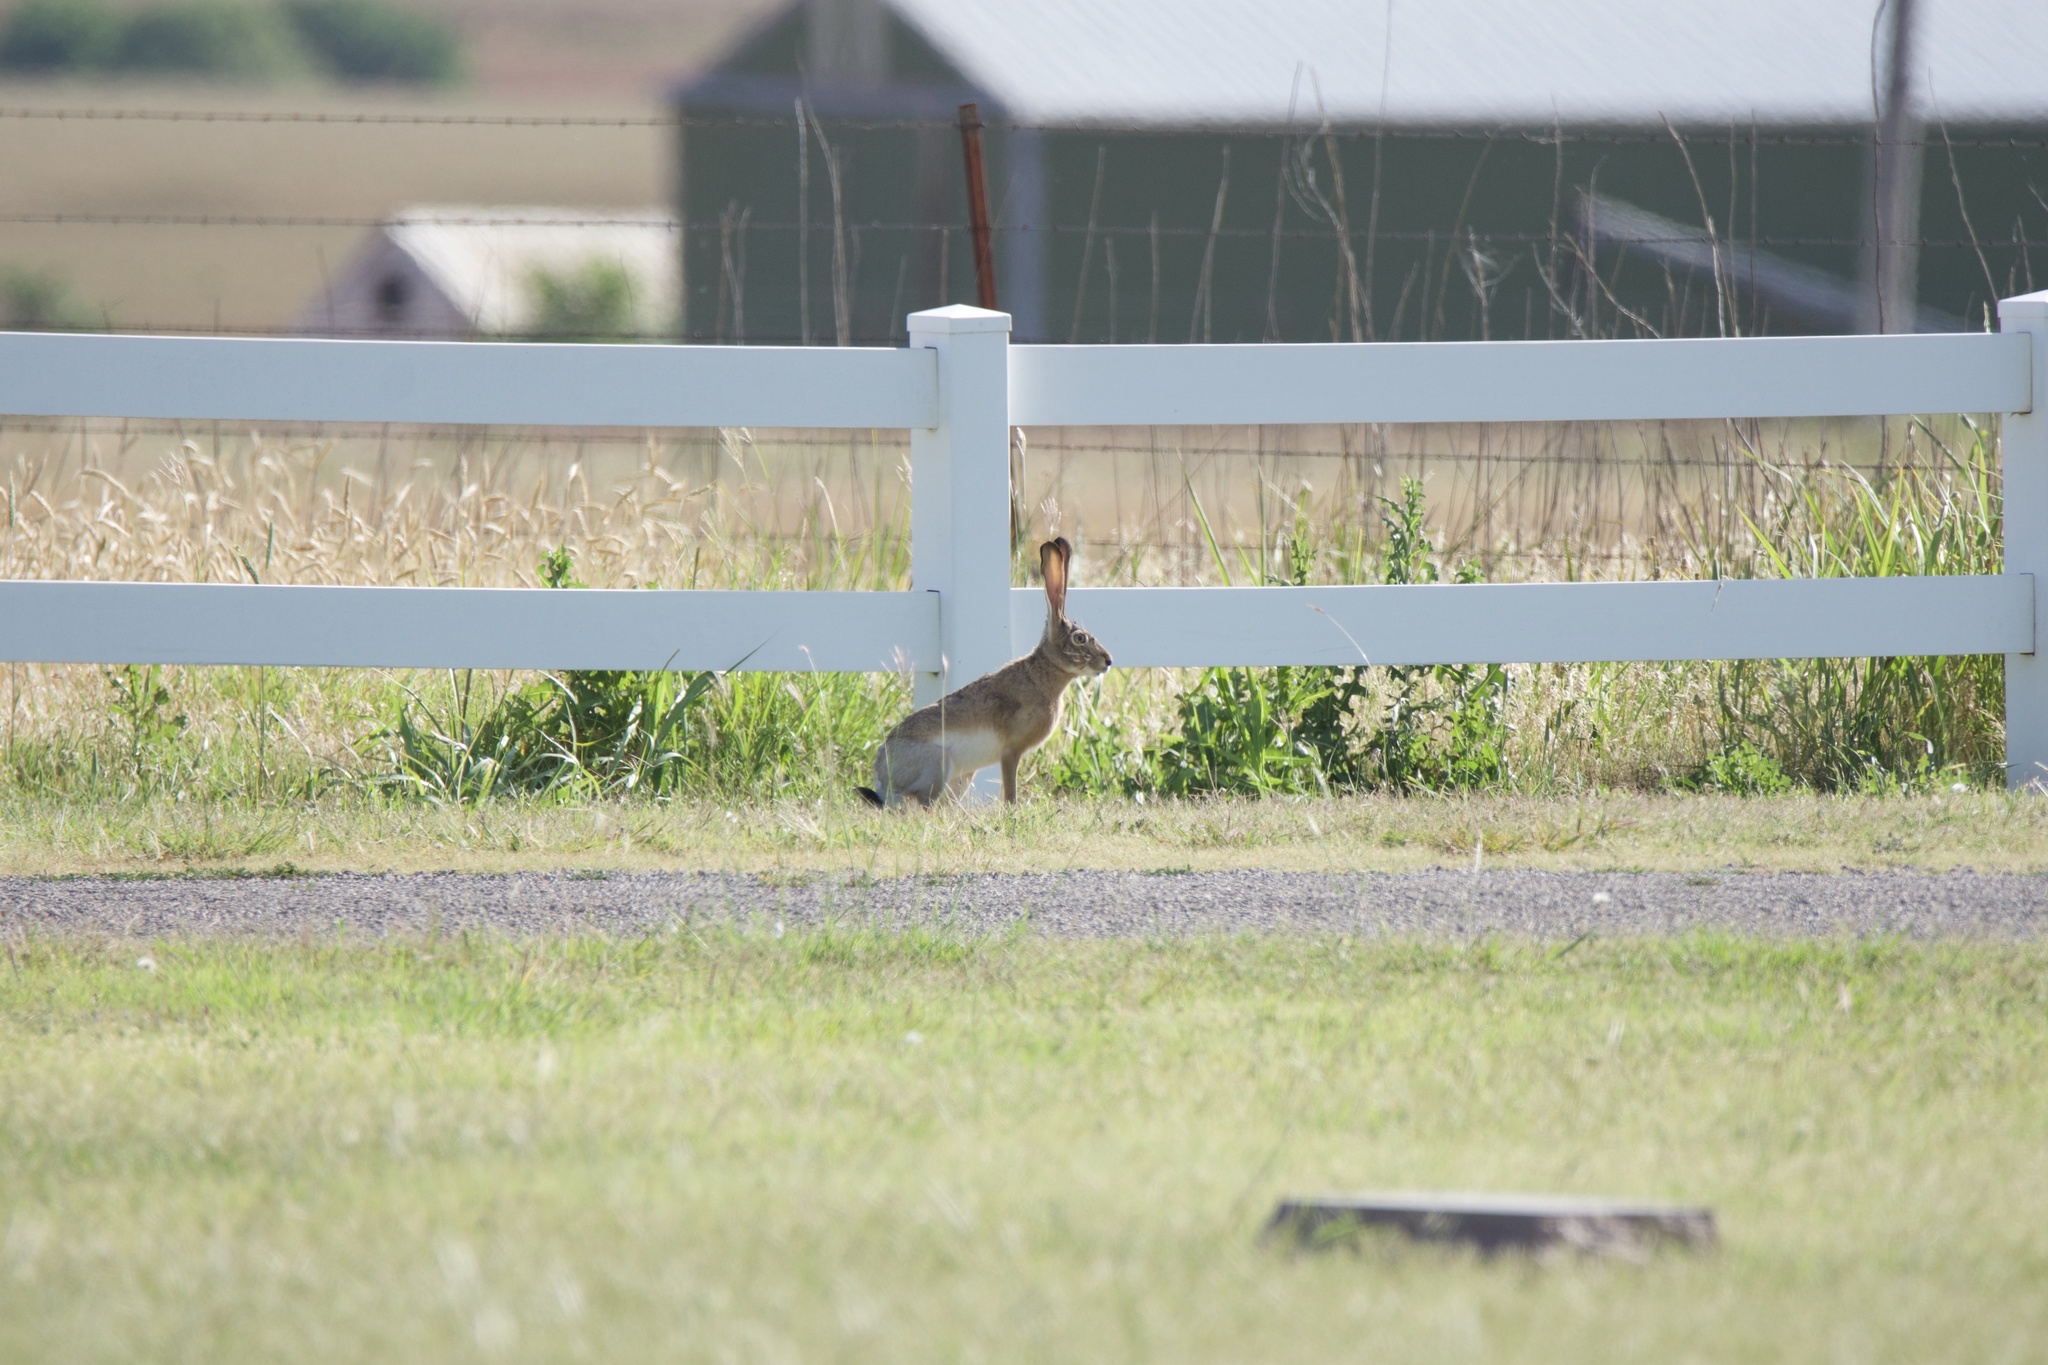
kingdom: Animalia
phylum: Chordata
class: Mammalia
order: Lagomorpha
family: Leporidae
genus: Lepus
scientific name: Lepus californicus
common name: Black-tailed jackrabbit
